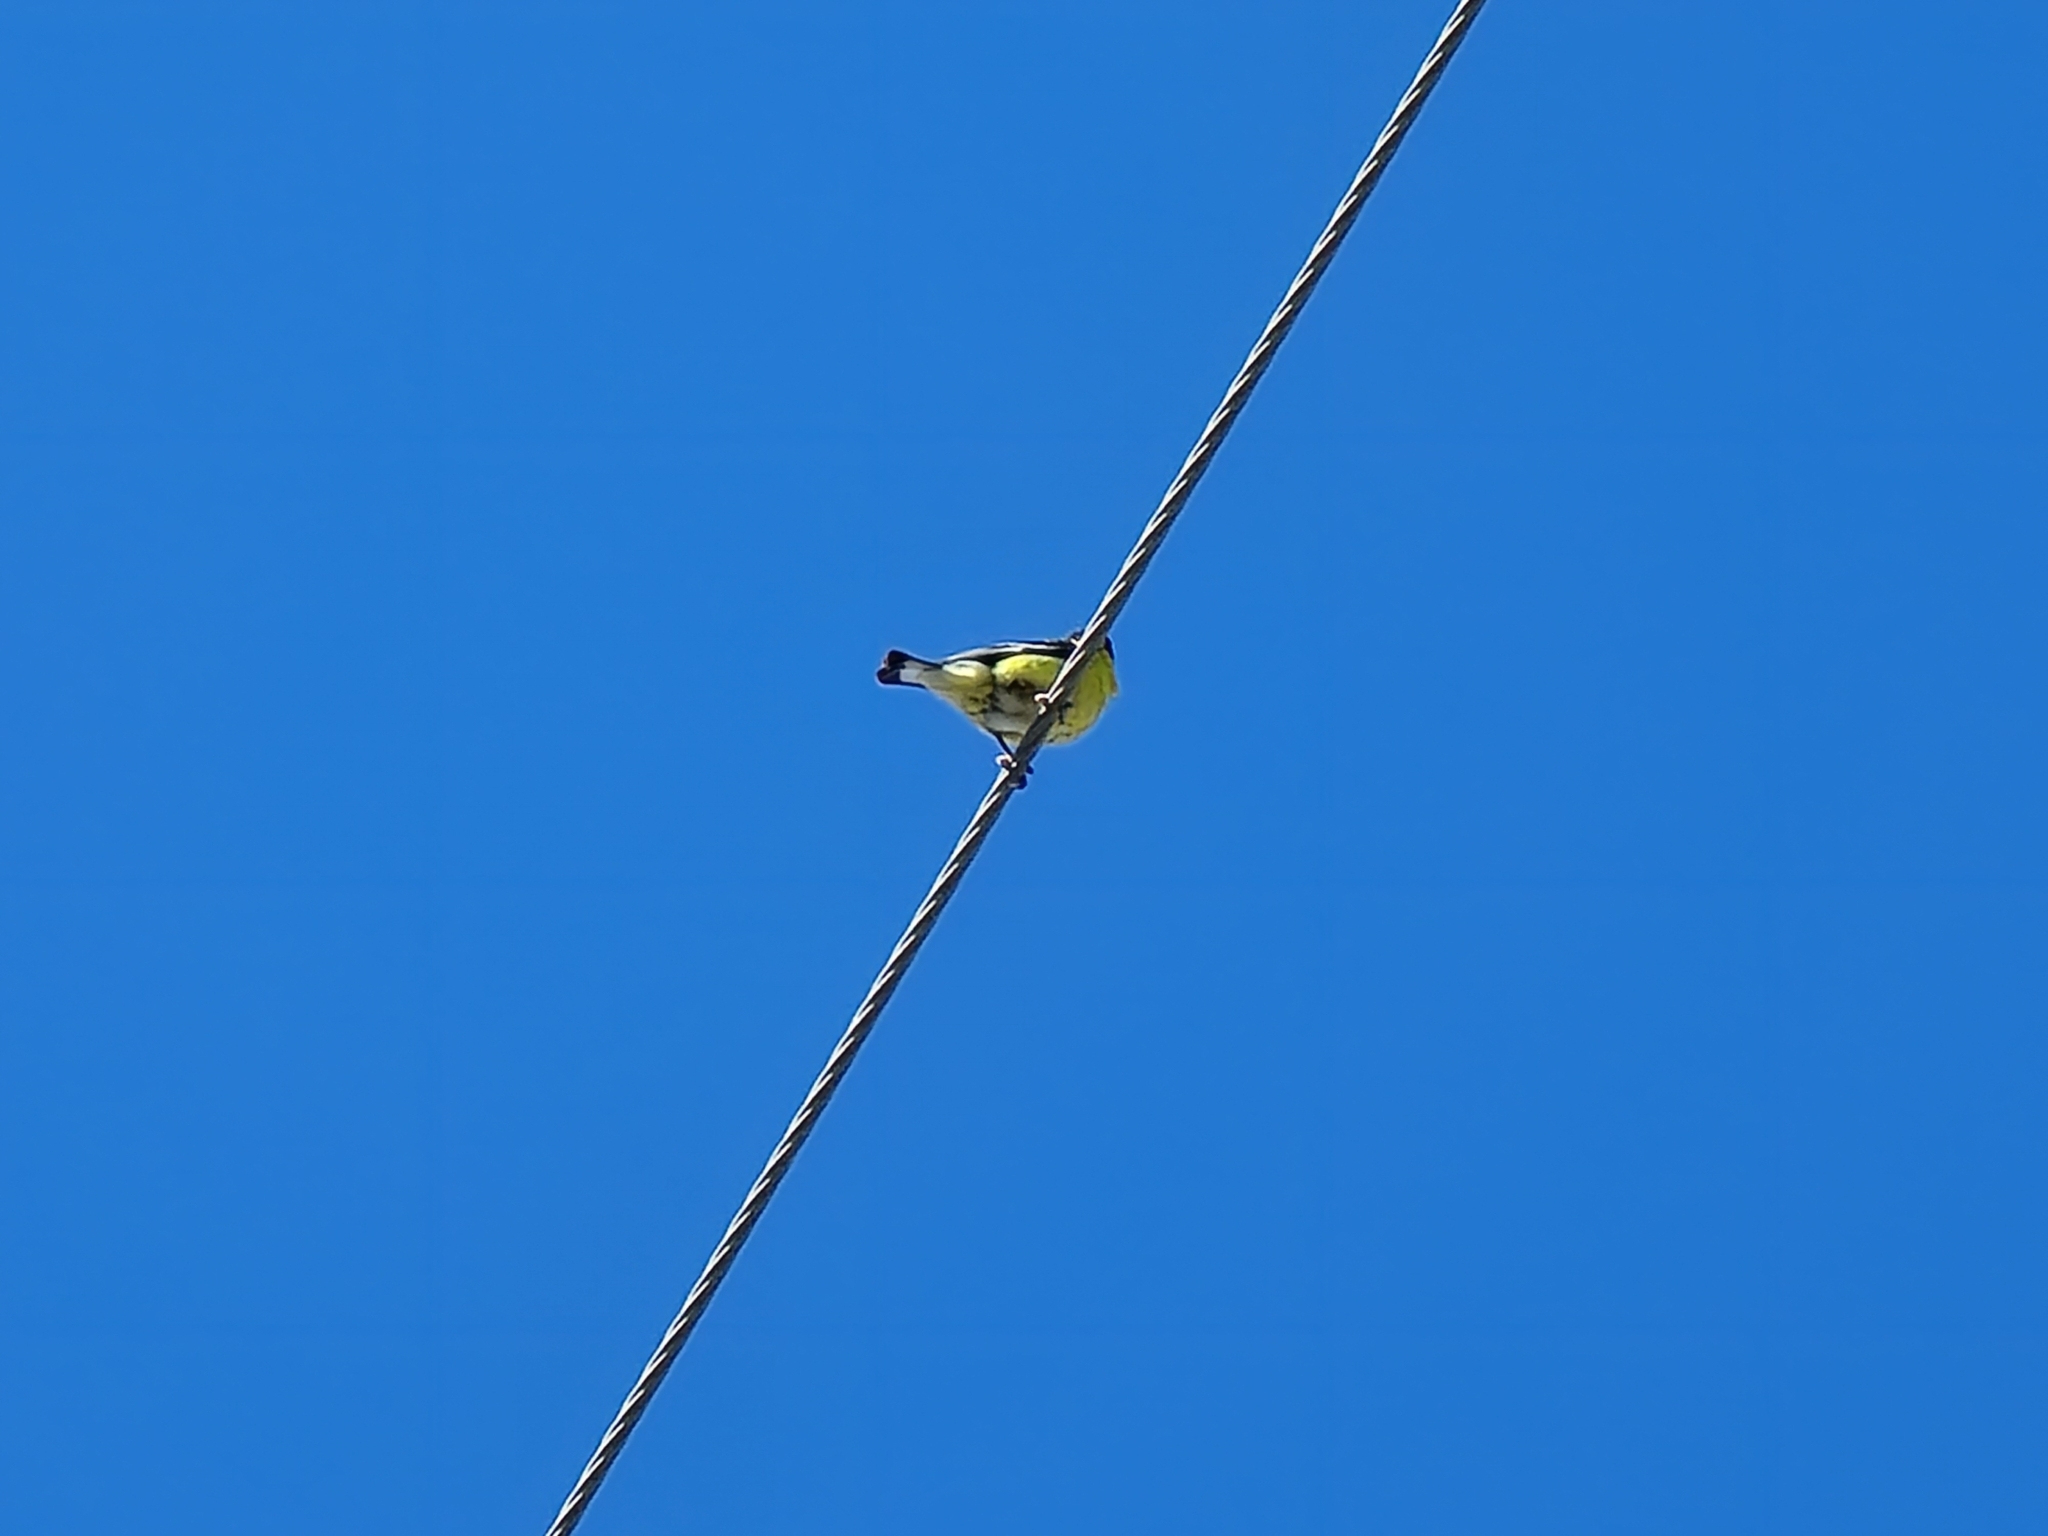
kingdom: Animalia
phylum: Chordata
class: Aves
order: Passeriformes
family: Fringillidae
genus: Spinus
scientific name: Spinus psaltria
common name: Lesser goldfinch
